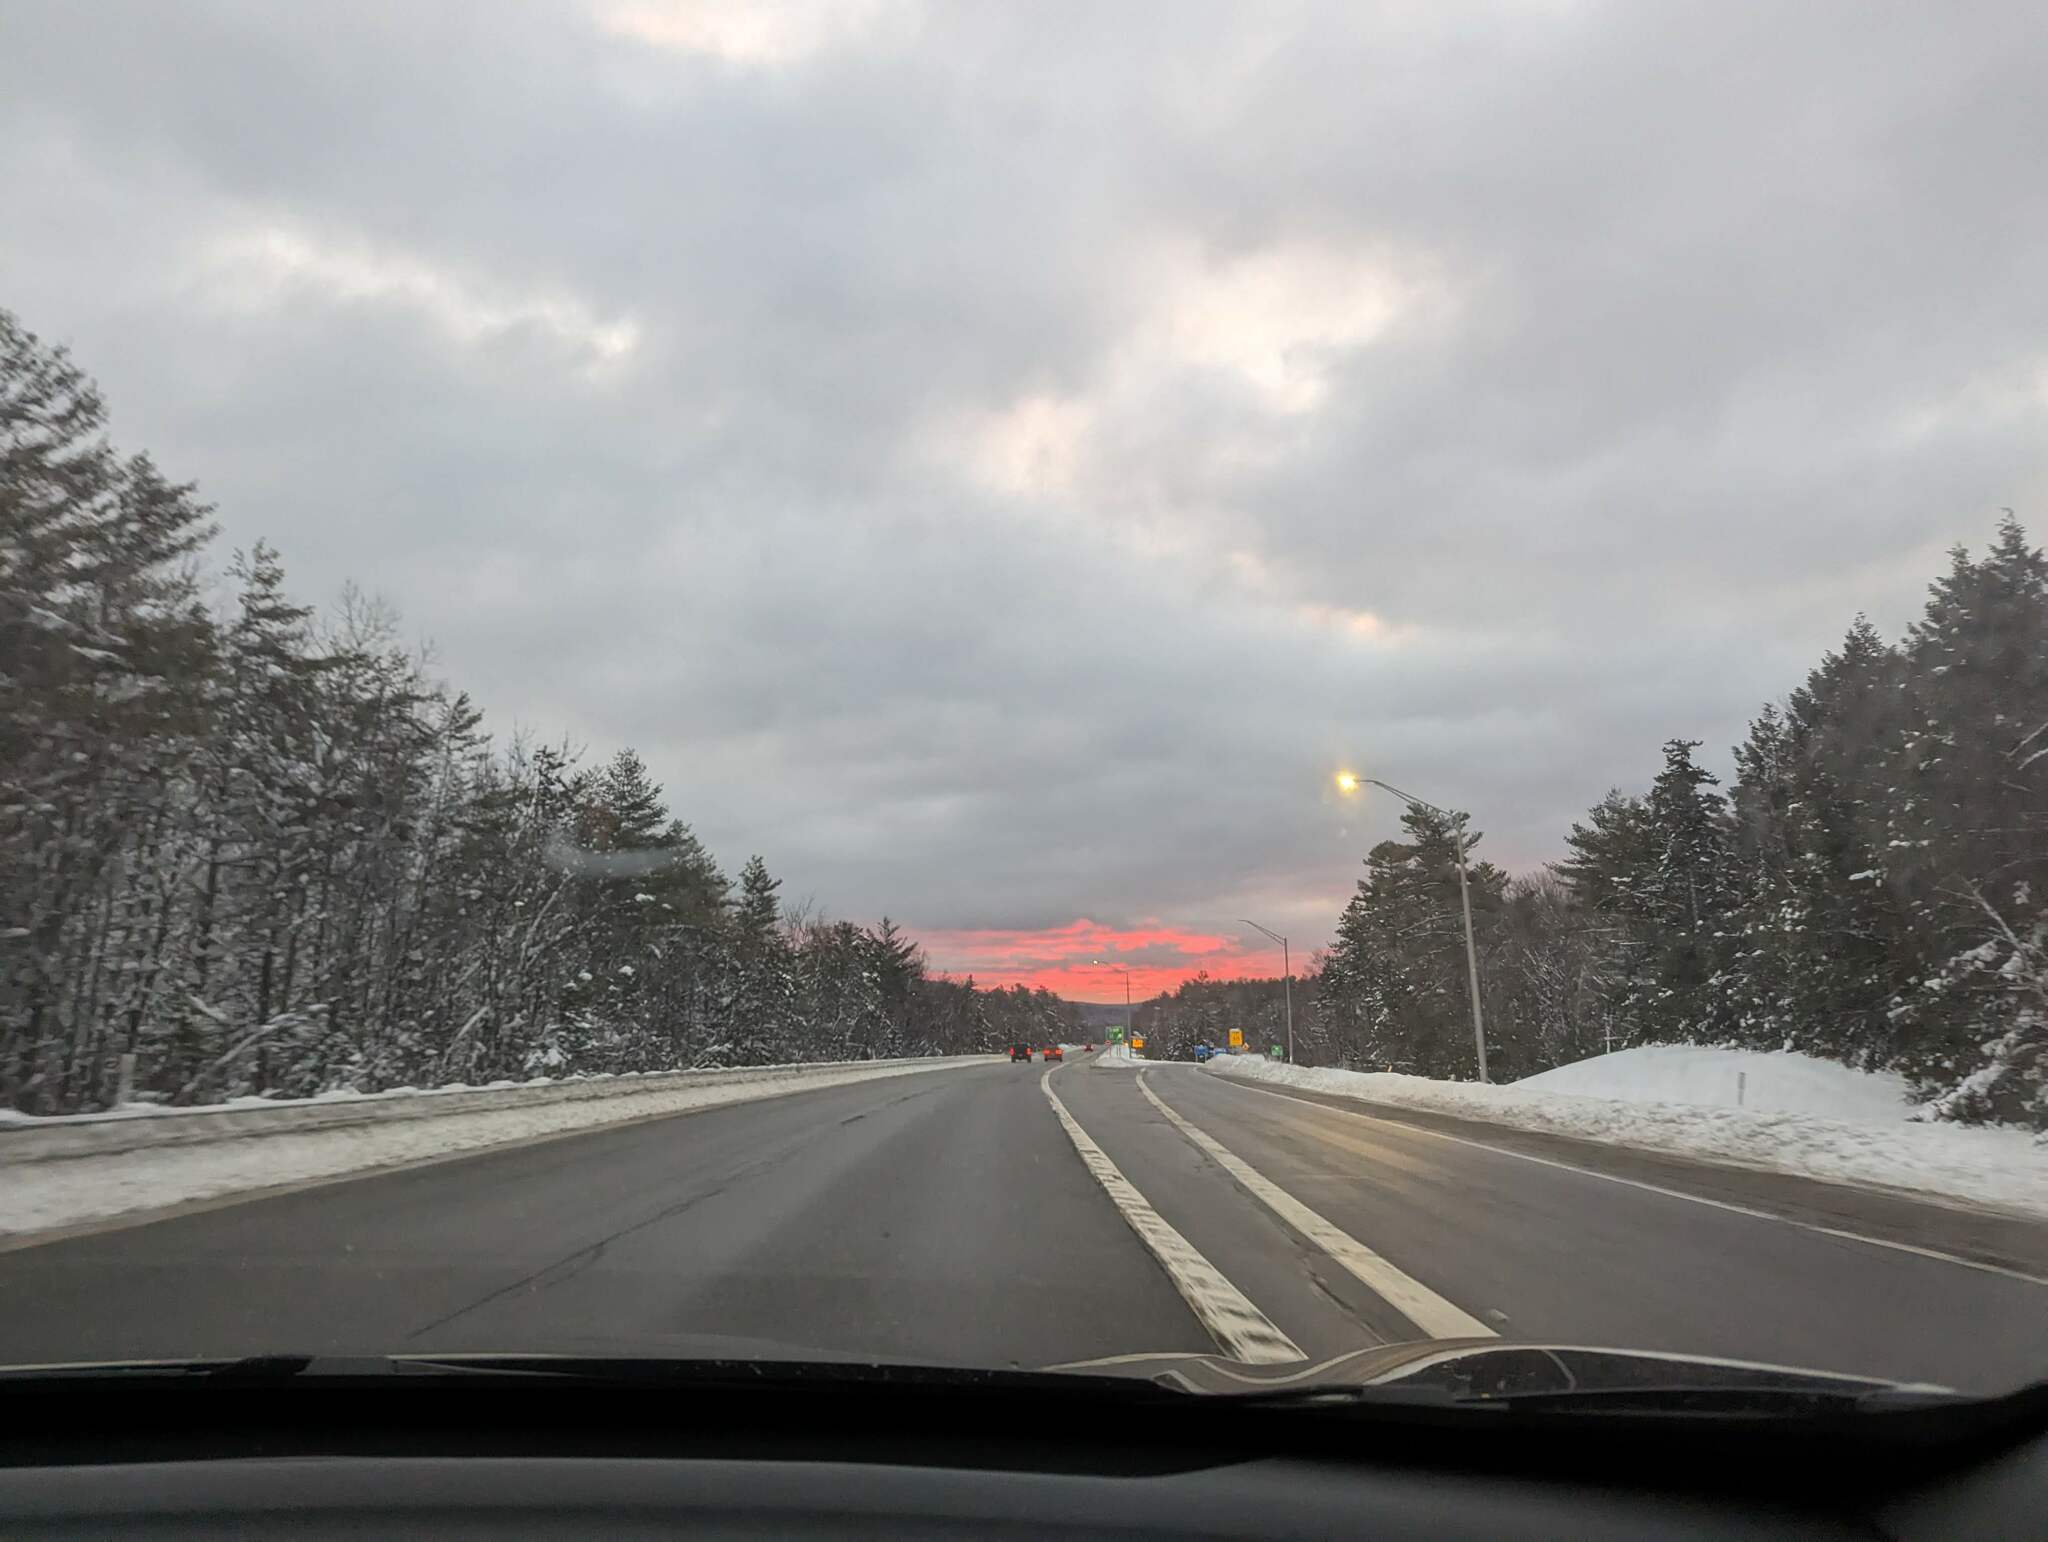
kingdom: Plantae
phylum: Tracheophyta
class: Pinopsida
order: Pinales
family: Pinaceae
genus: Pinus
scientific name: Pinus strobus
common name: Weymouth pine
